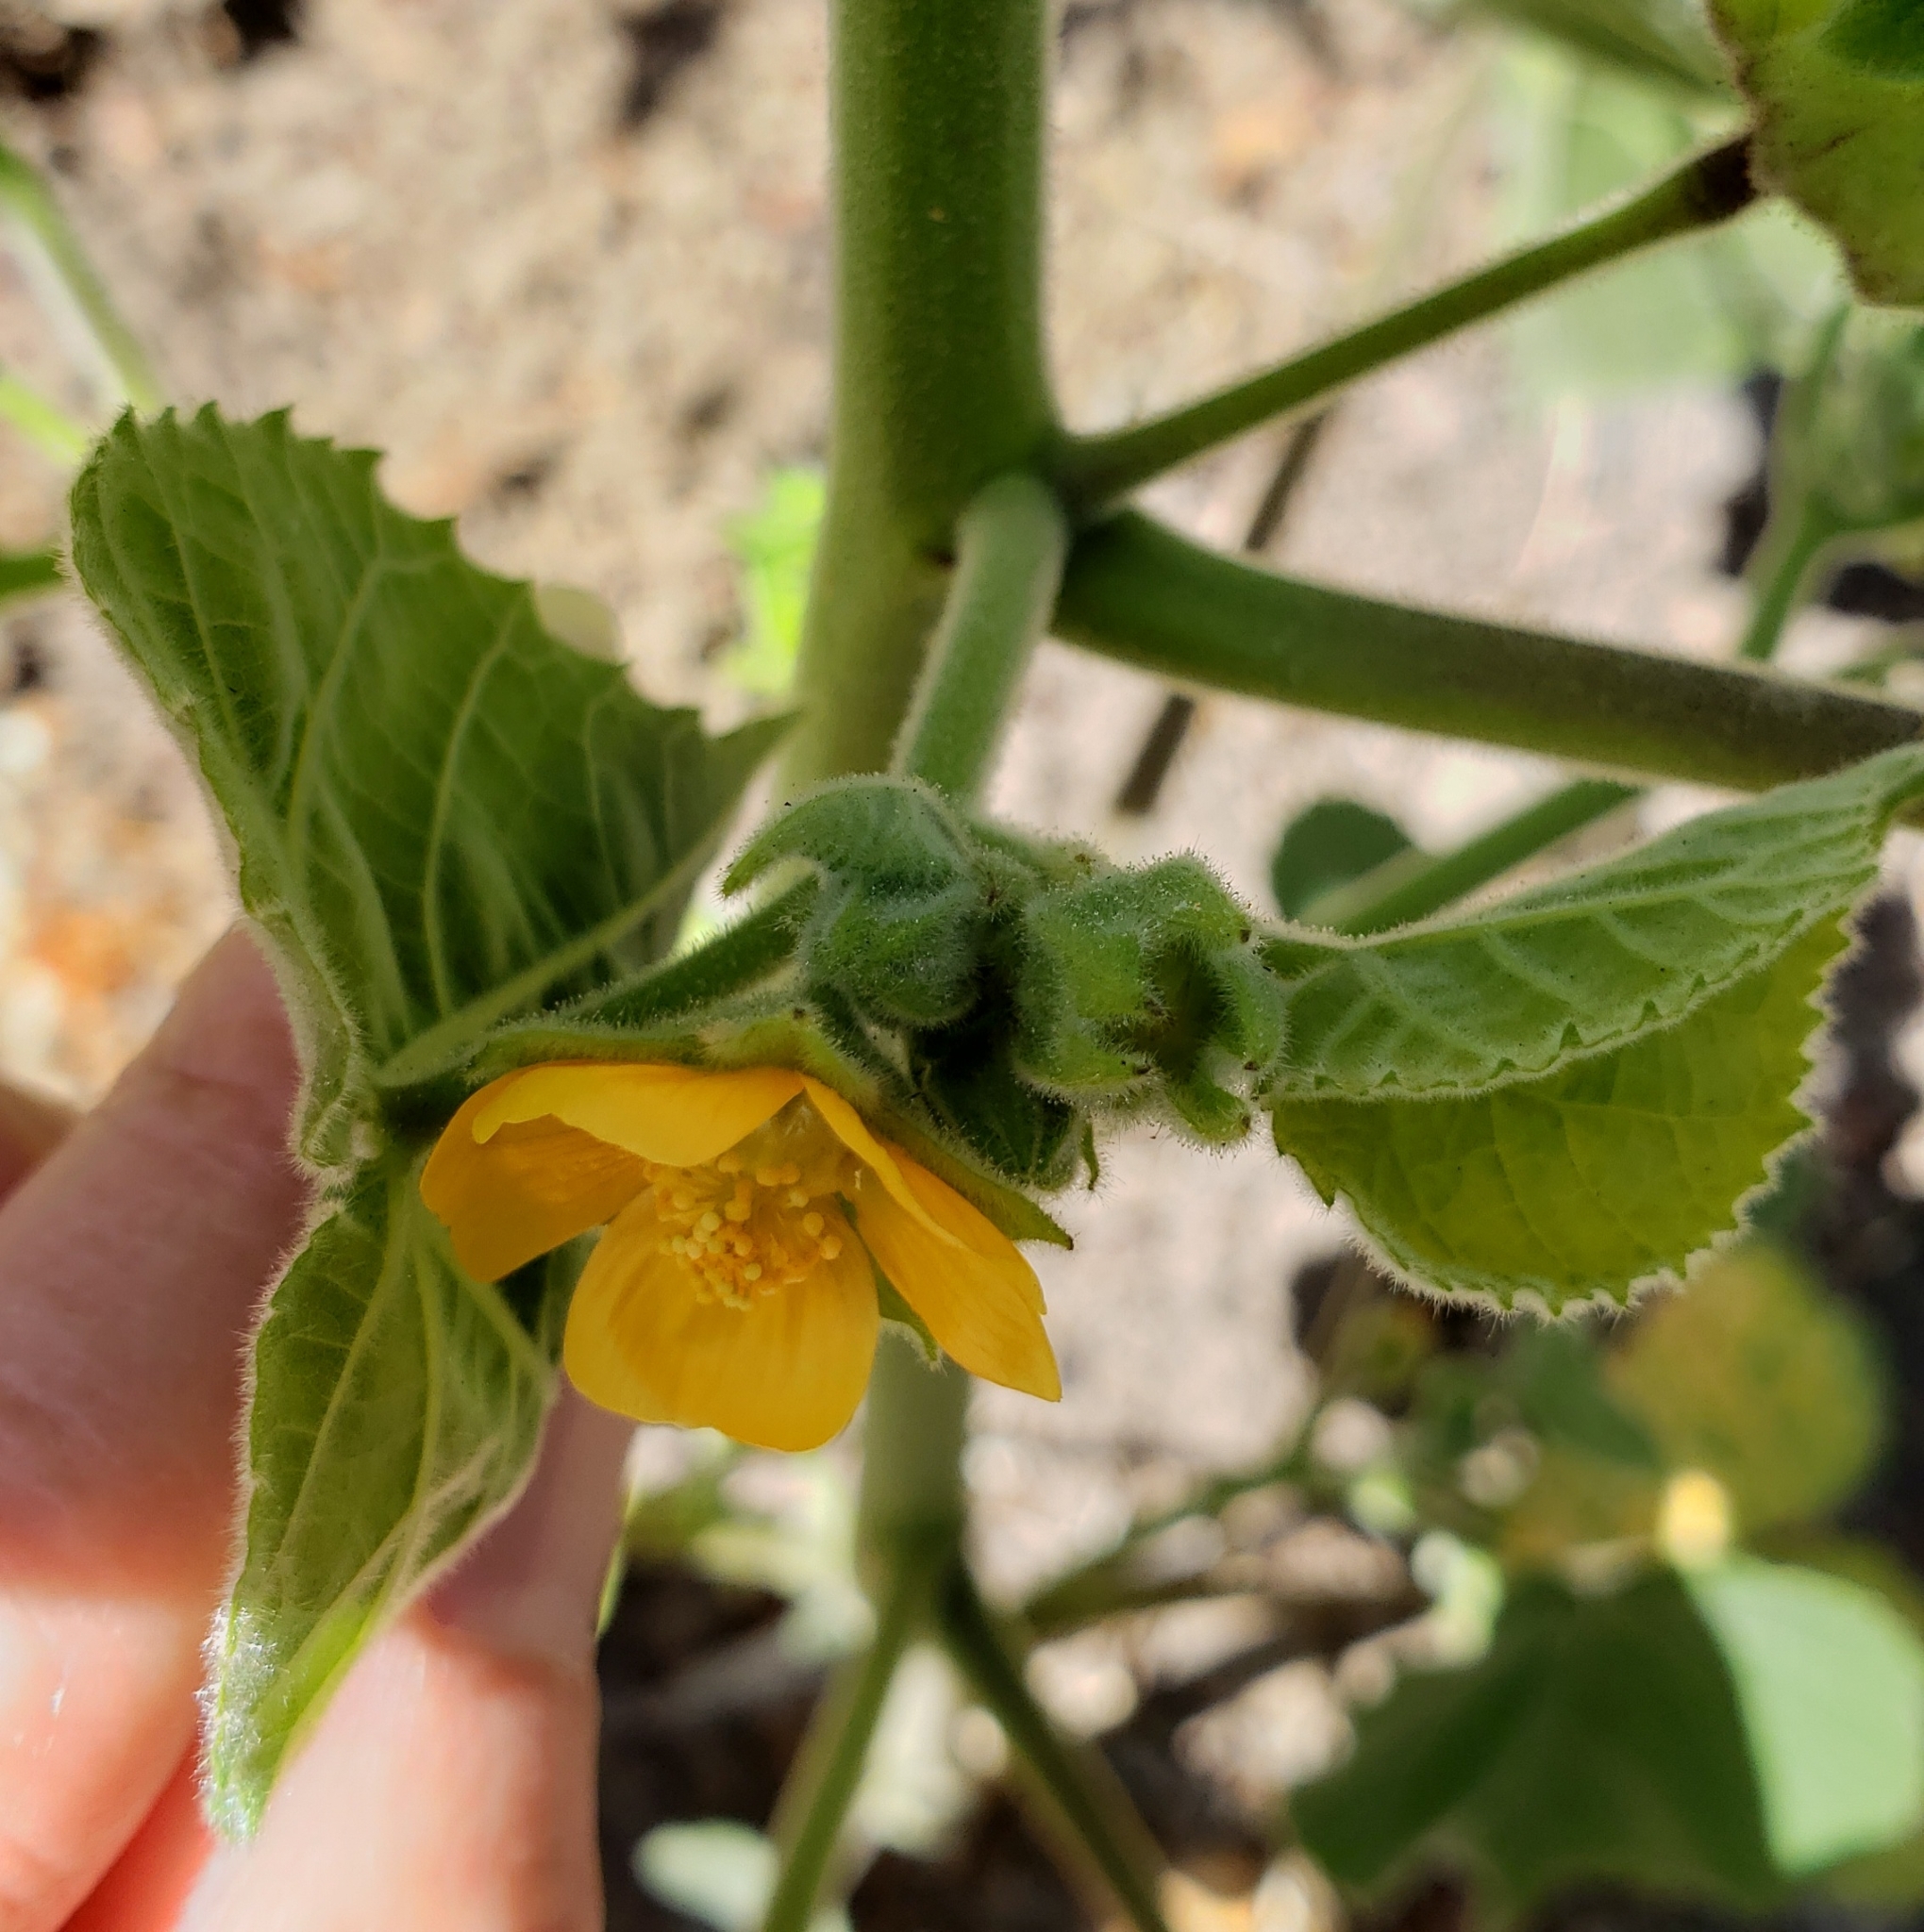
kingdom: Plantae
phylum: Tracheophyta
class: Magnoliopsida
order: Malvales
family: Malvaceae
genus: Abutilon
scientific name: Abutilon theophrasti
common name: Velvetleaf
